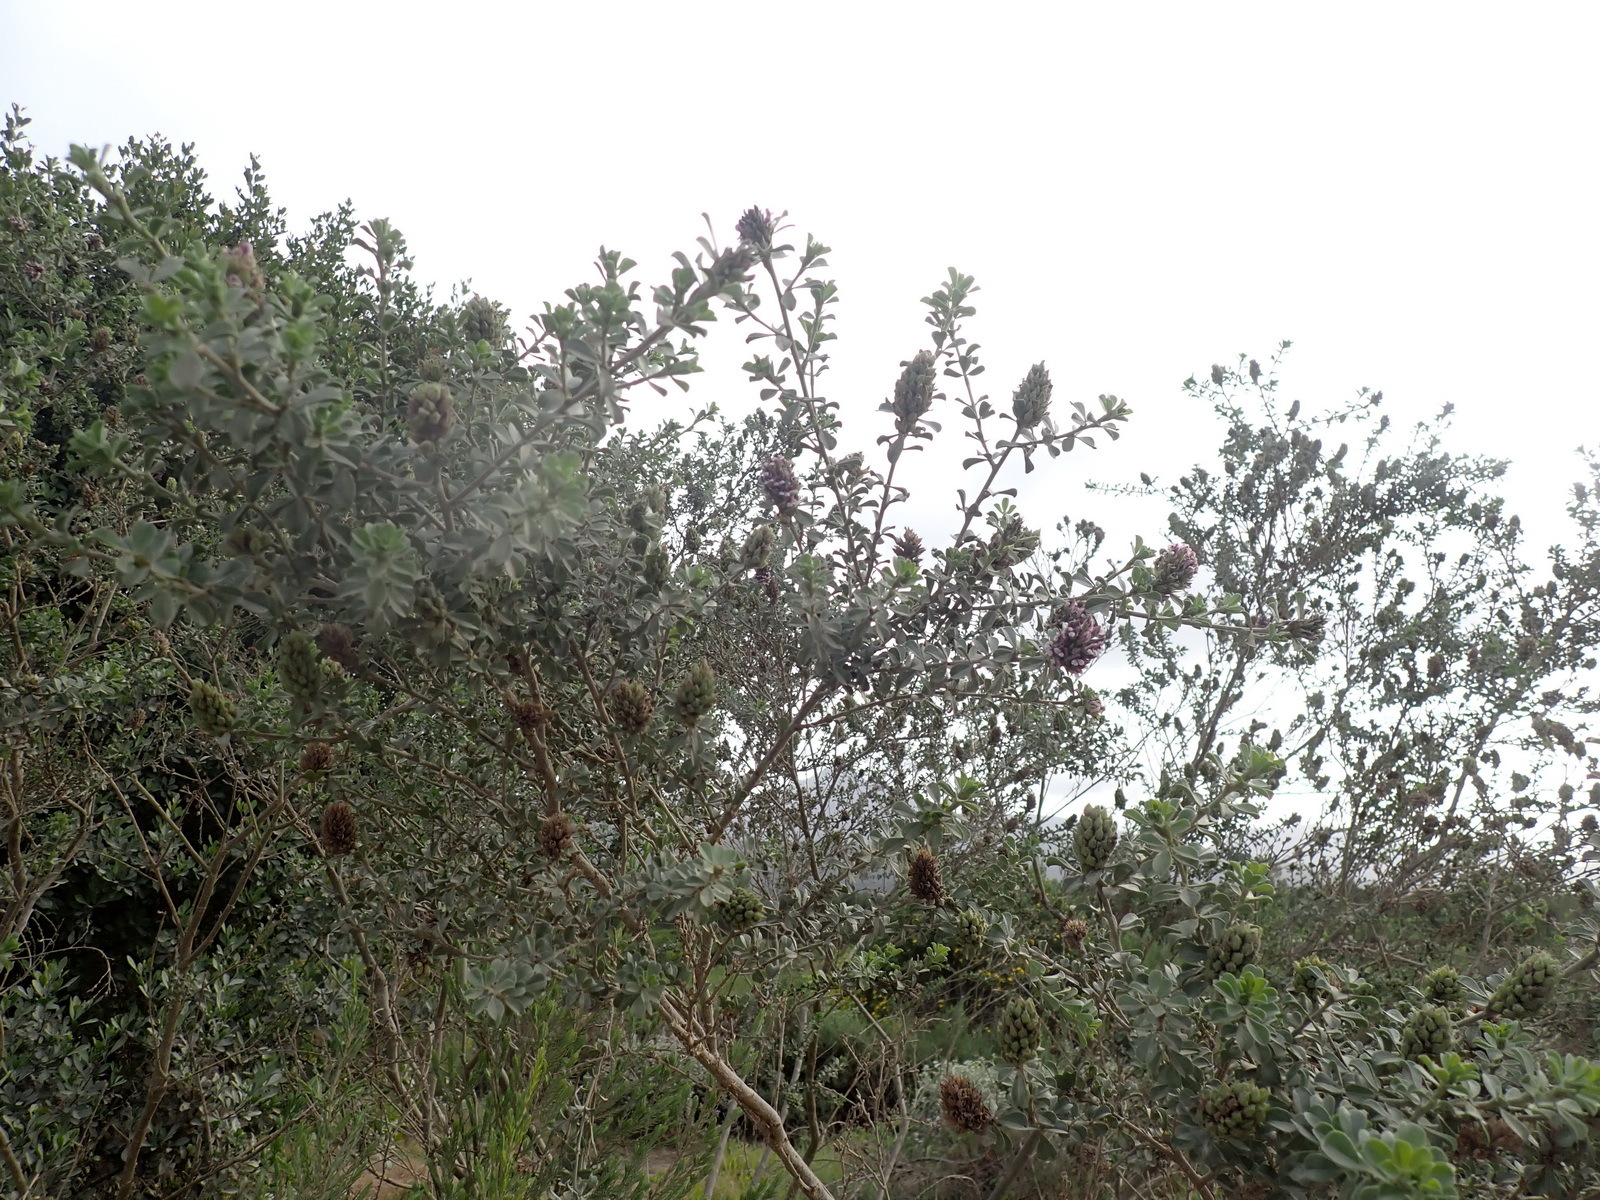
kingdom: Plantae
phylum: Tracheophyta
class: Magnoliopsida
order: Fabales
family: Fabaceae
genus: Psoralea
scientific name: Psoralea stachyera
